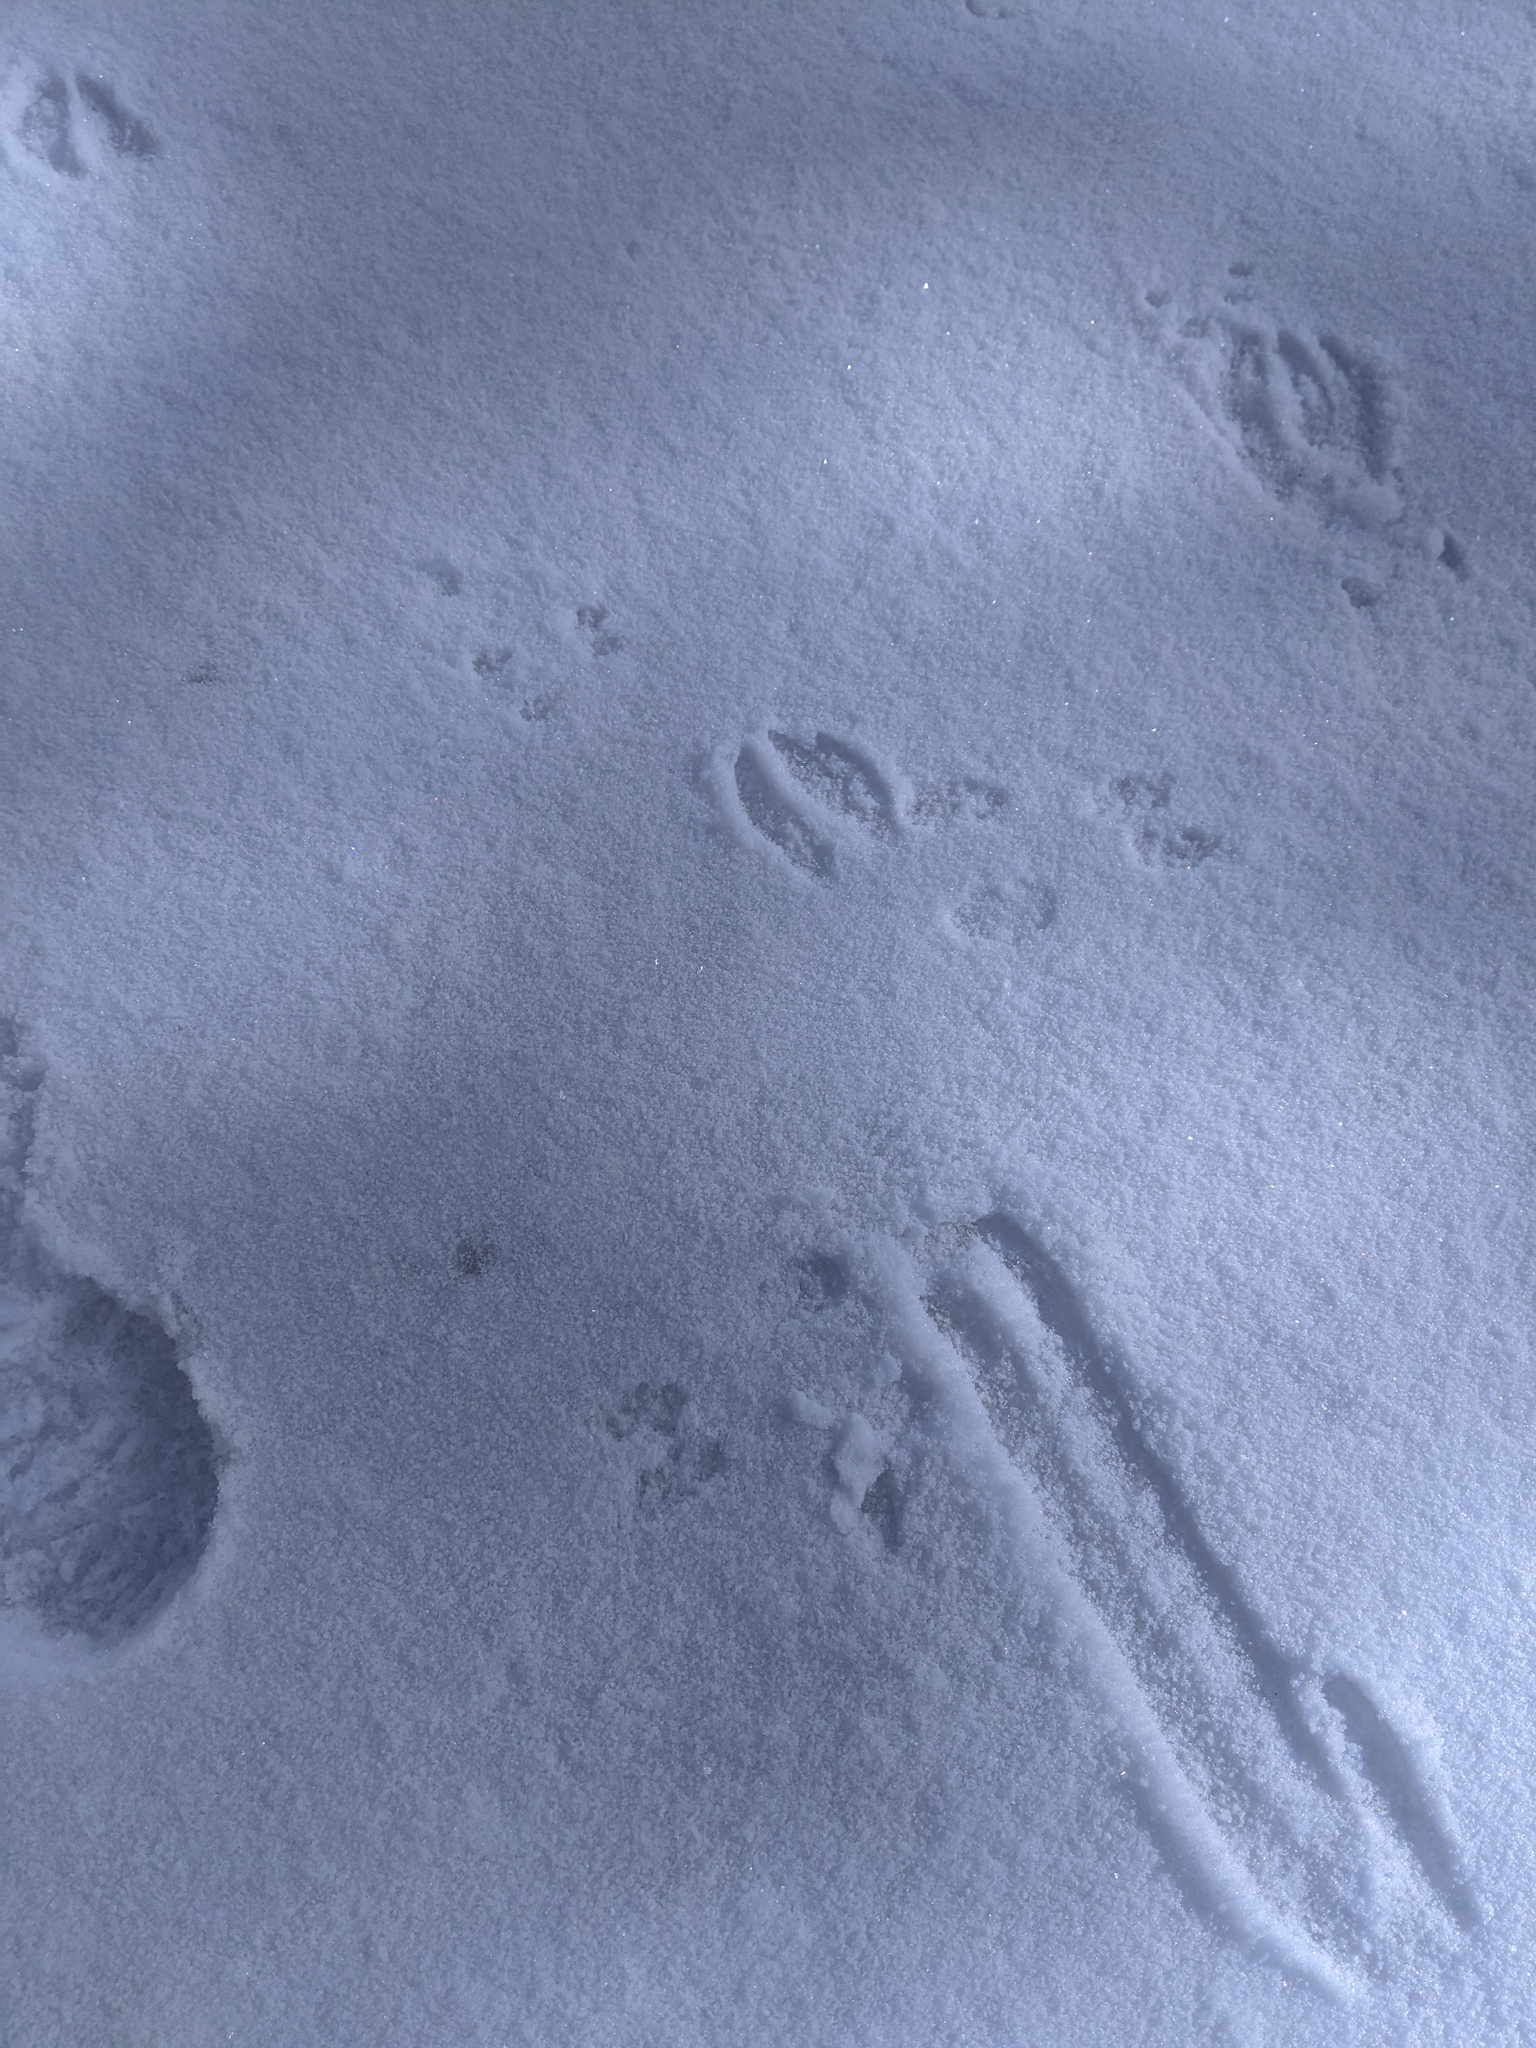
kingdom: Animalia
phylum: Chordata
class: Mammalia
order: Artiodactyla
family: Cervidae
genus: Odocoileus
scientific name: Odocoileus virginianus
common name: White-tailed deer
